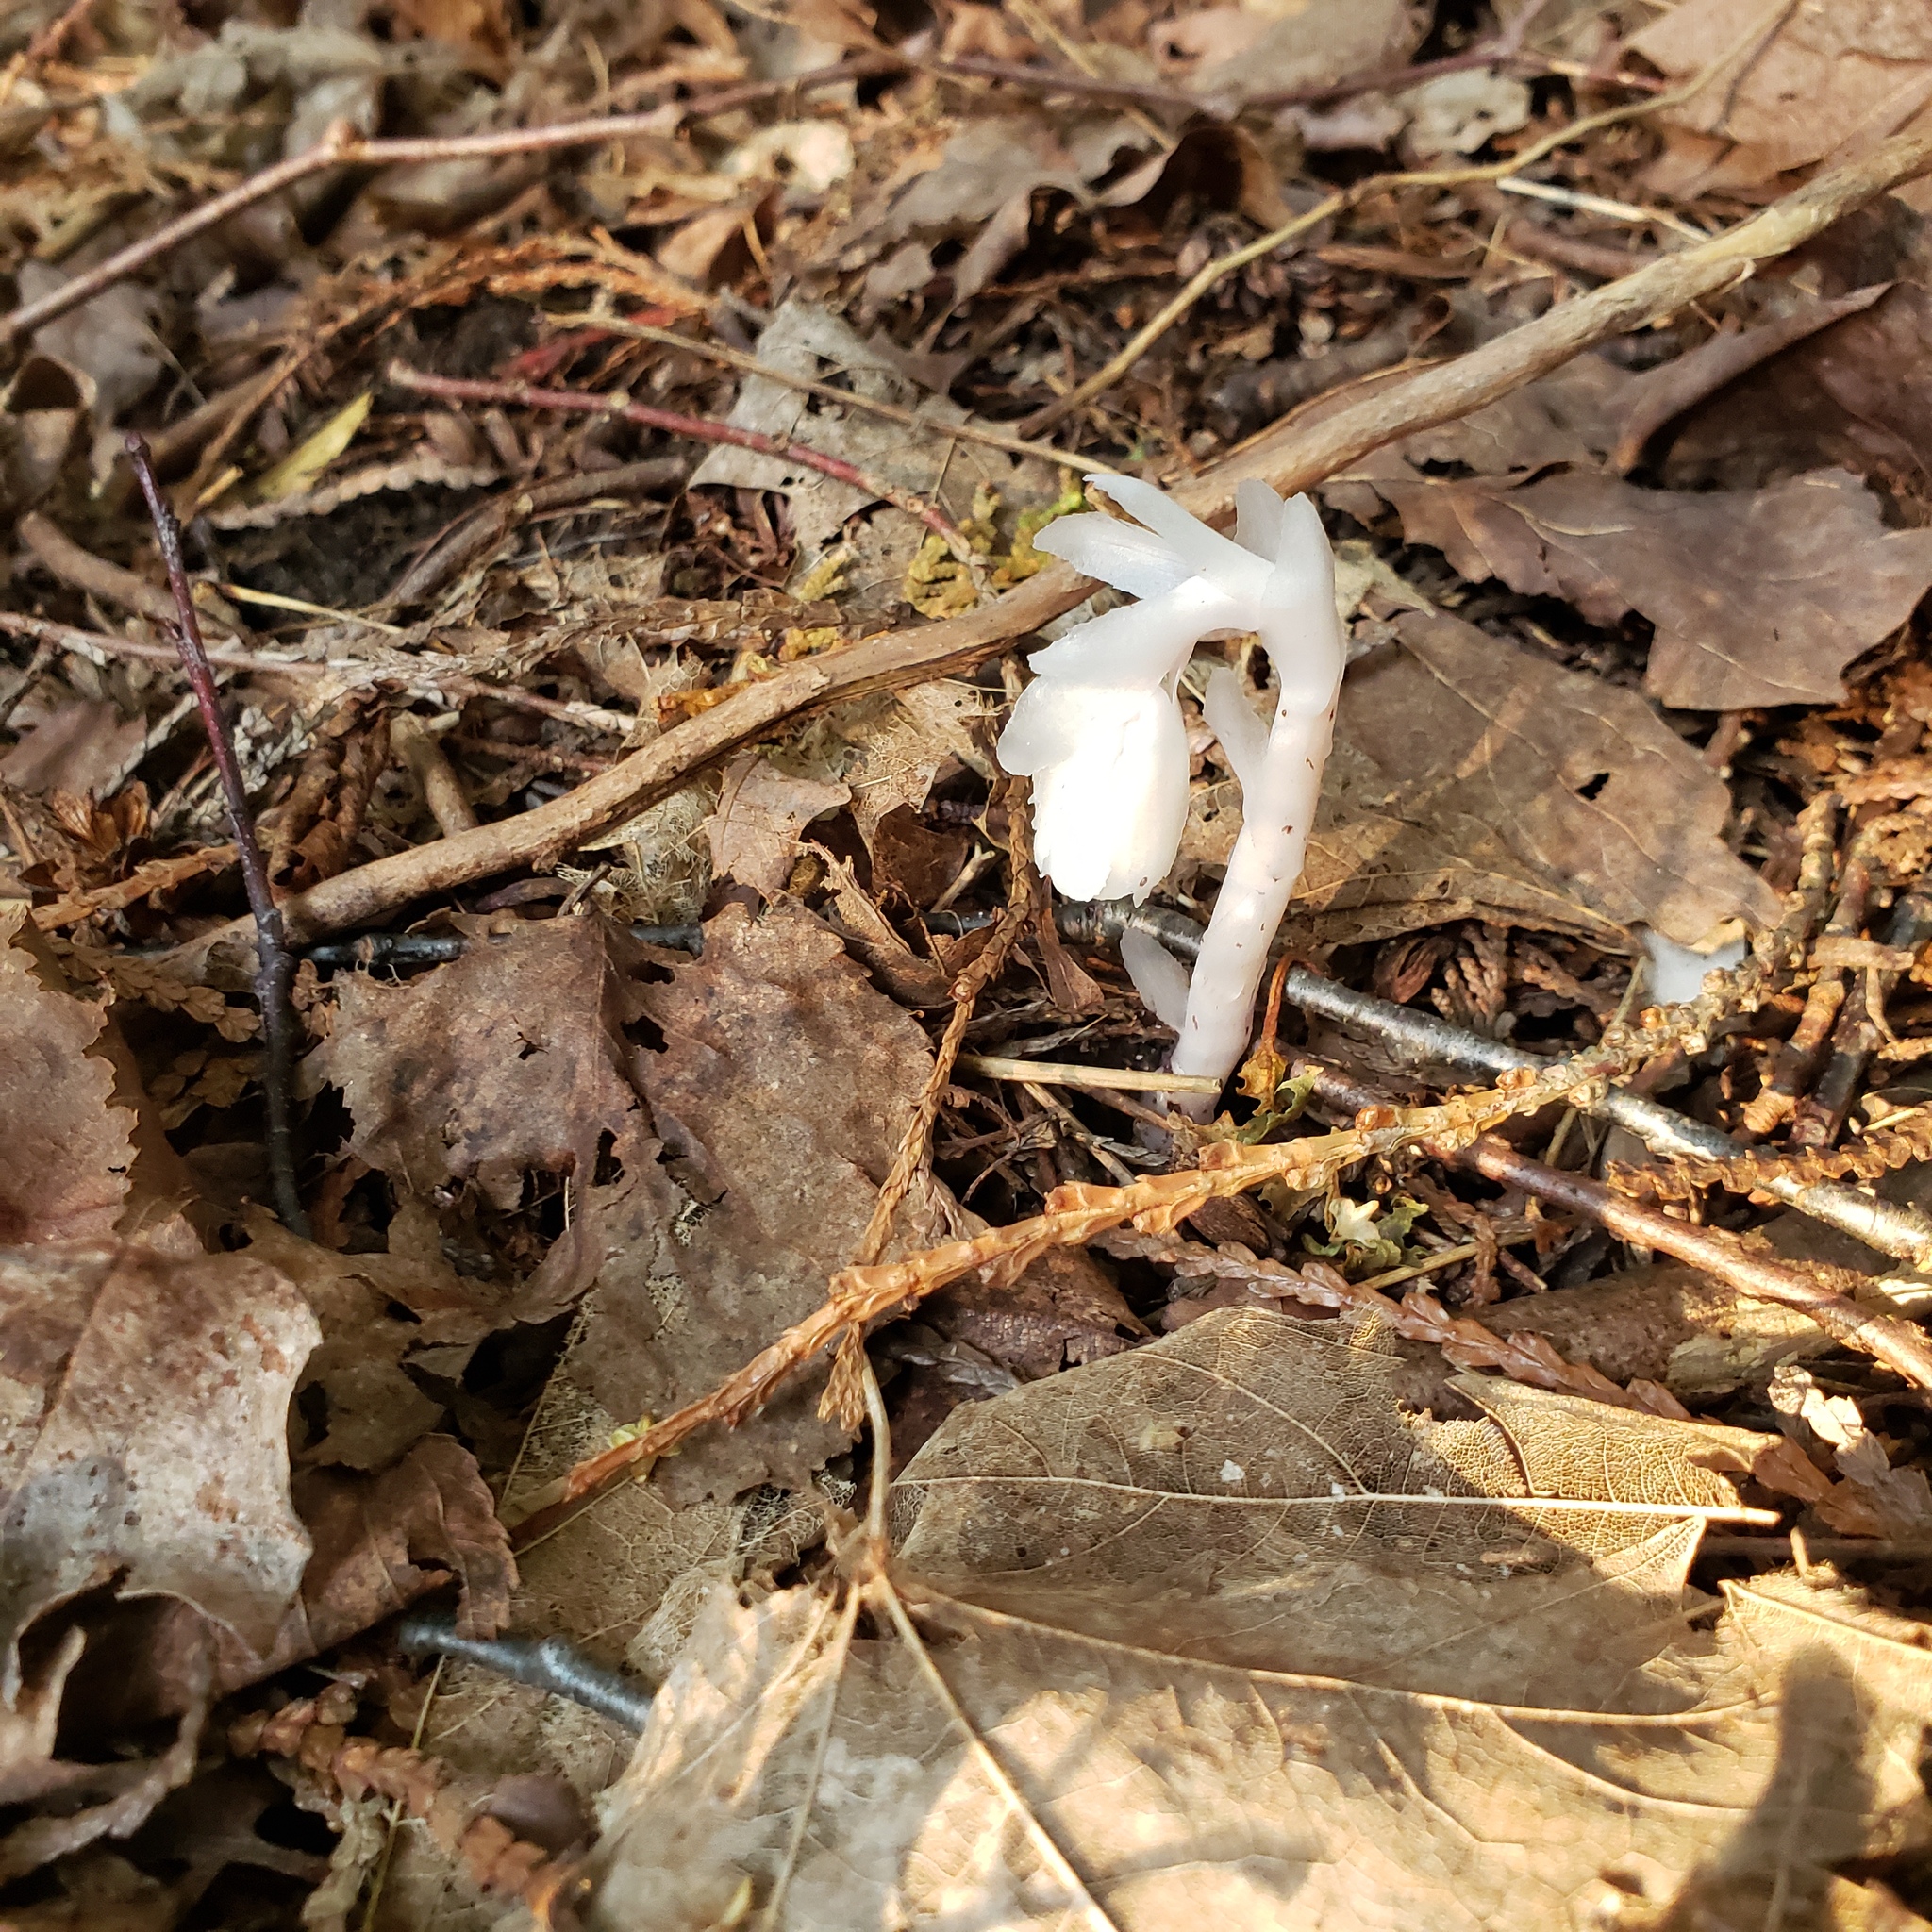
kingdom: Plantae
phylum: Tracheophyta
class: Magnoliopsida
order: Ericales
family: Ericaceae
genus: Monotropa
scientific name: Monotropa uniflora
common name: Convulsion root
